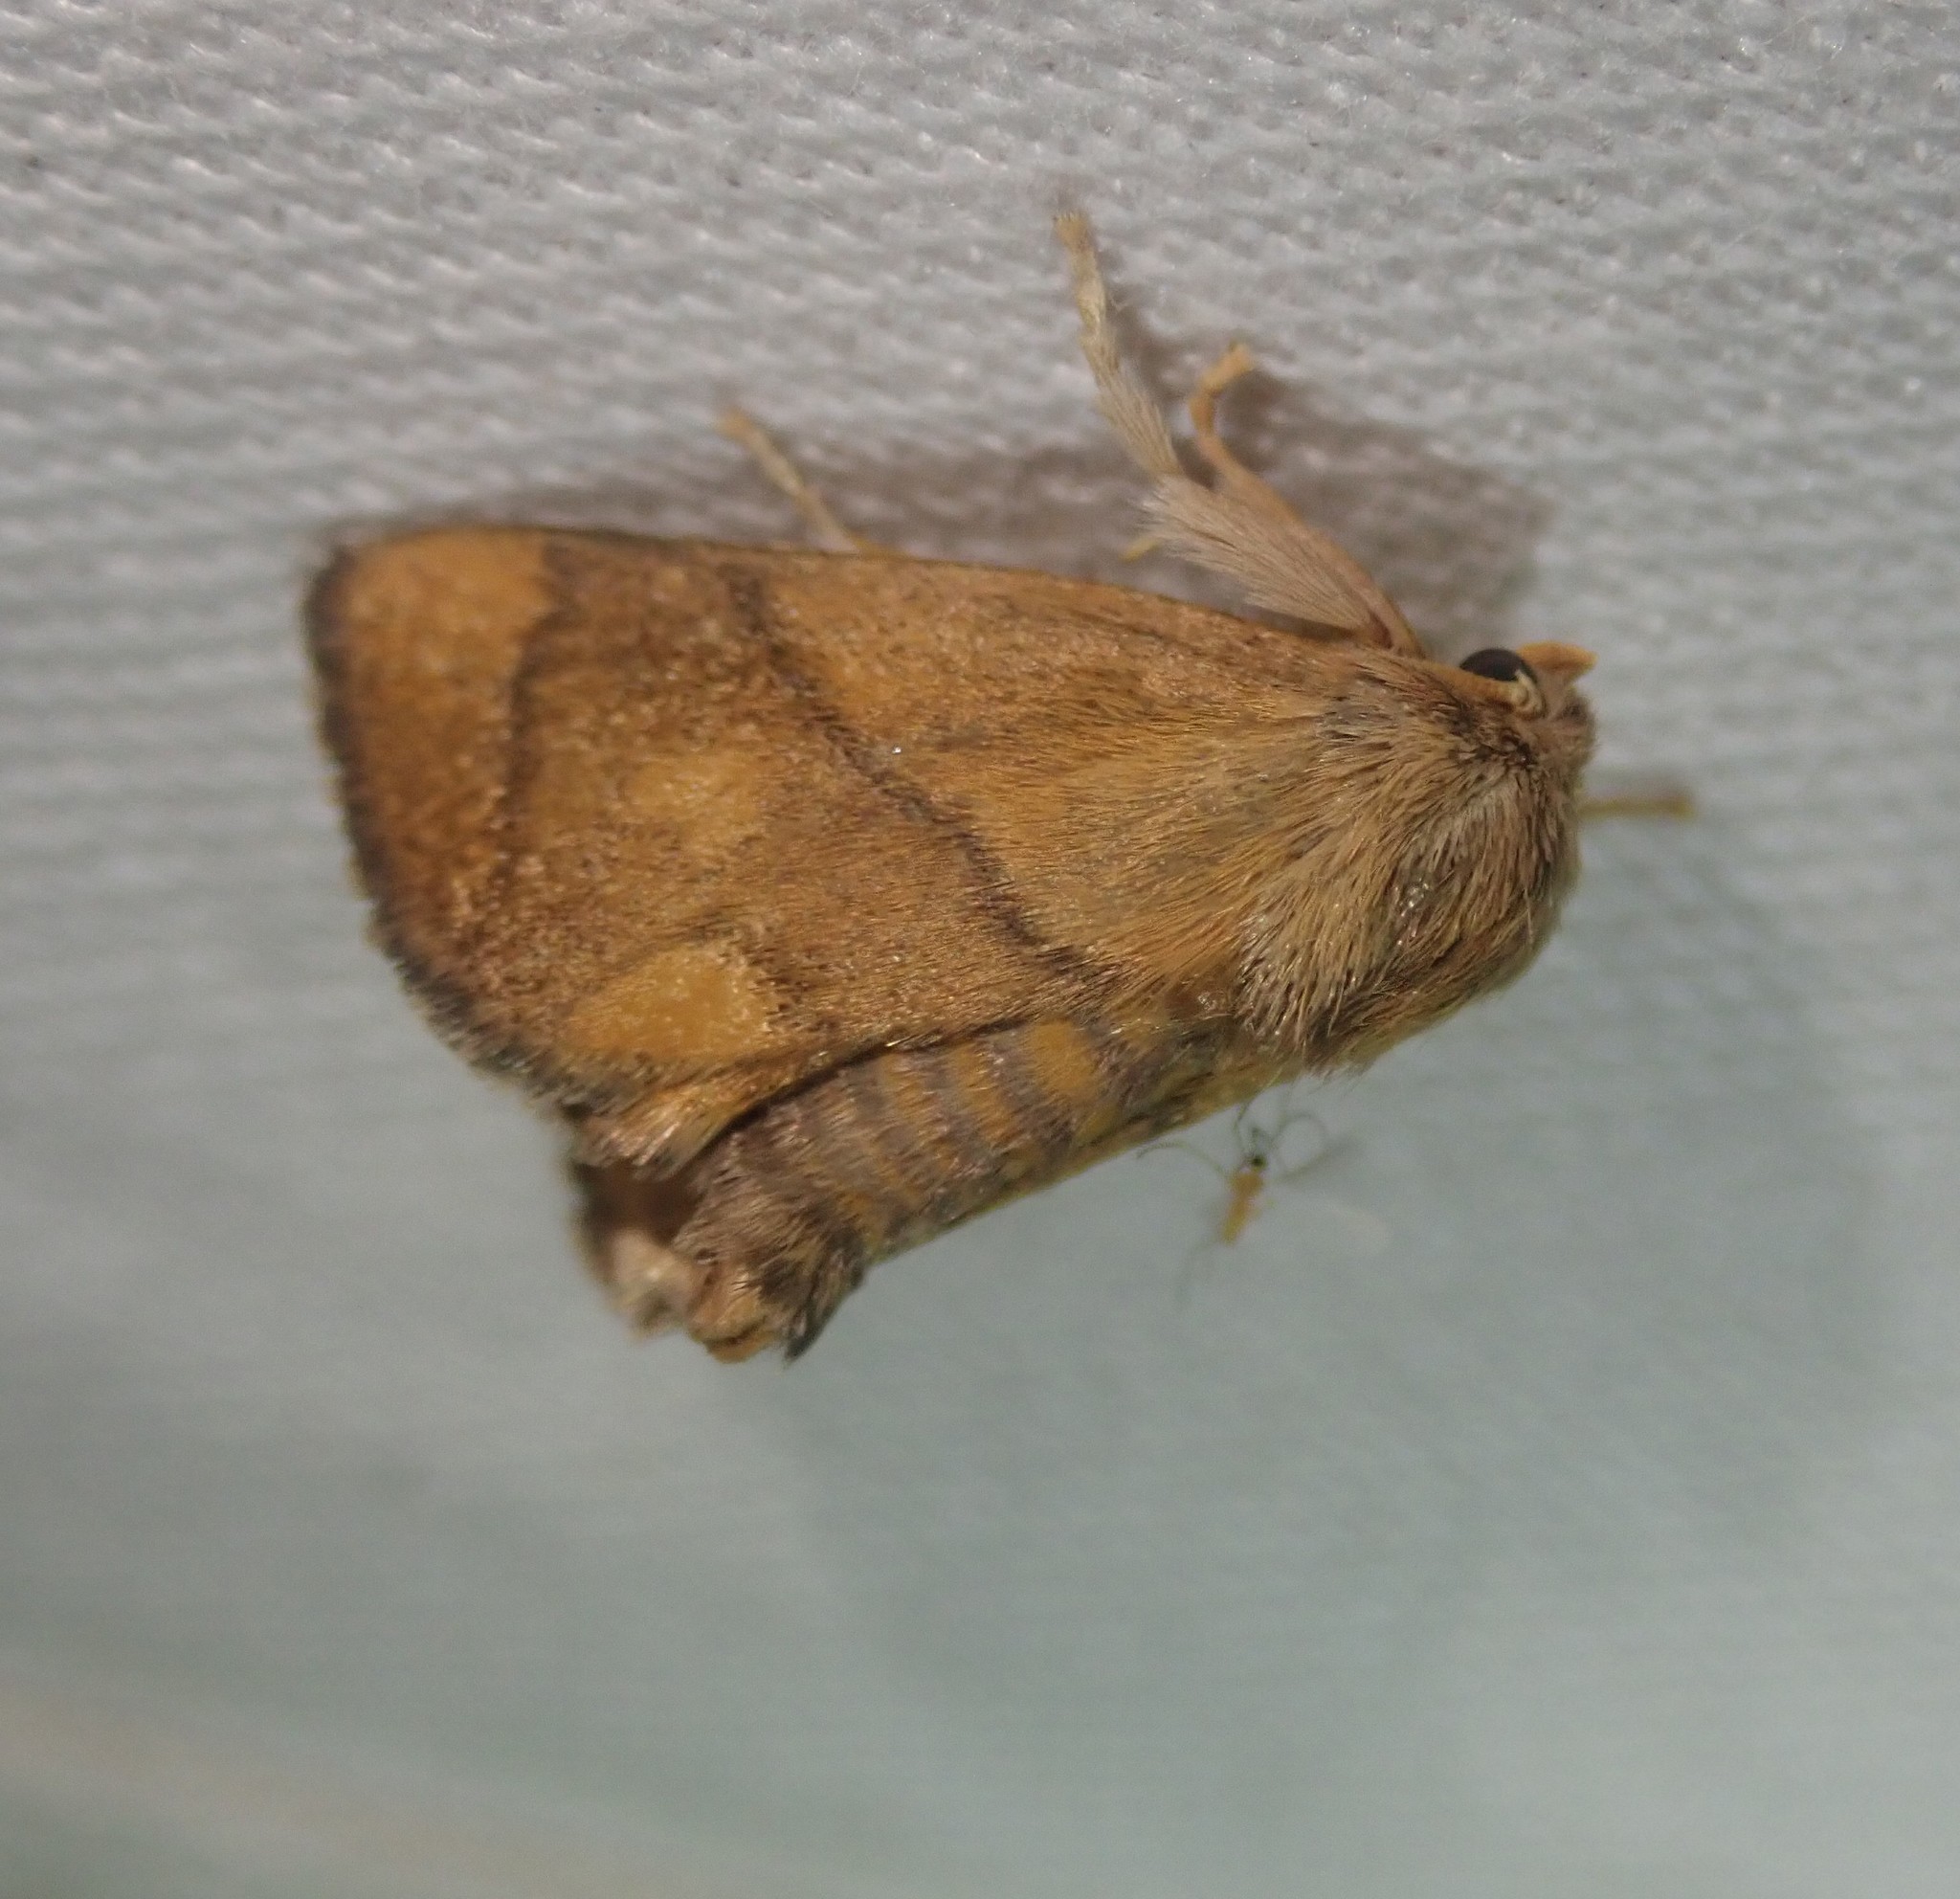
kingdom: Animalia
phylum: Arthropoda
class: Insecta
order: Lepidoptera
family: Limacodidae
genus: Apoda
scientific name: Apoda limacodes
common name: Festoon
